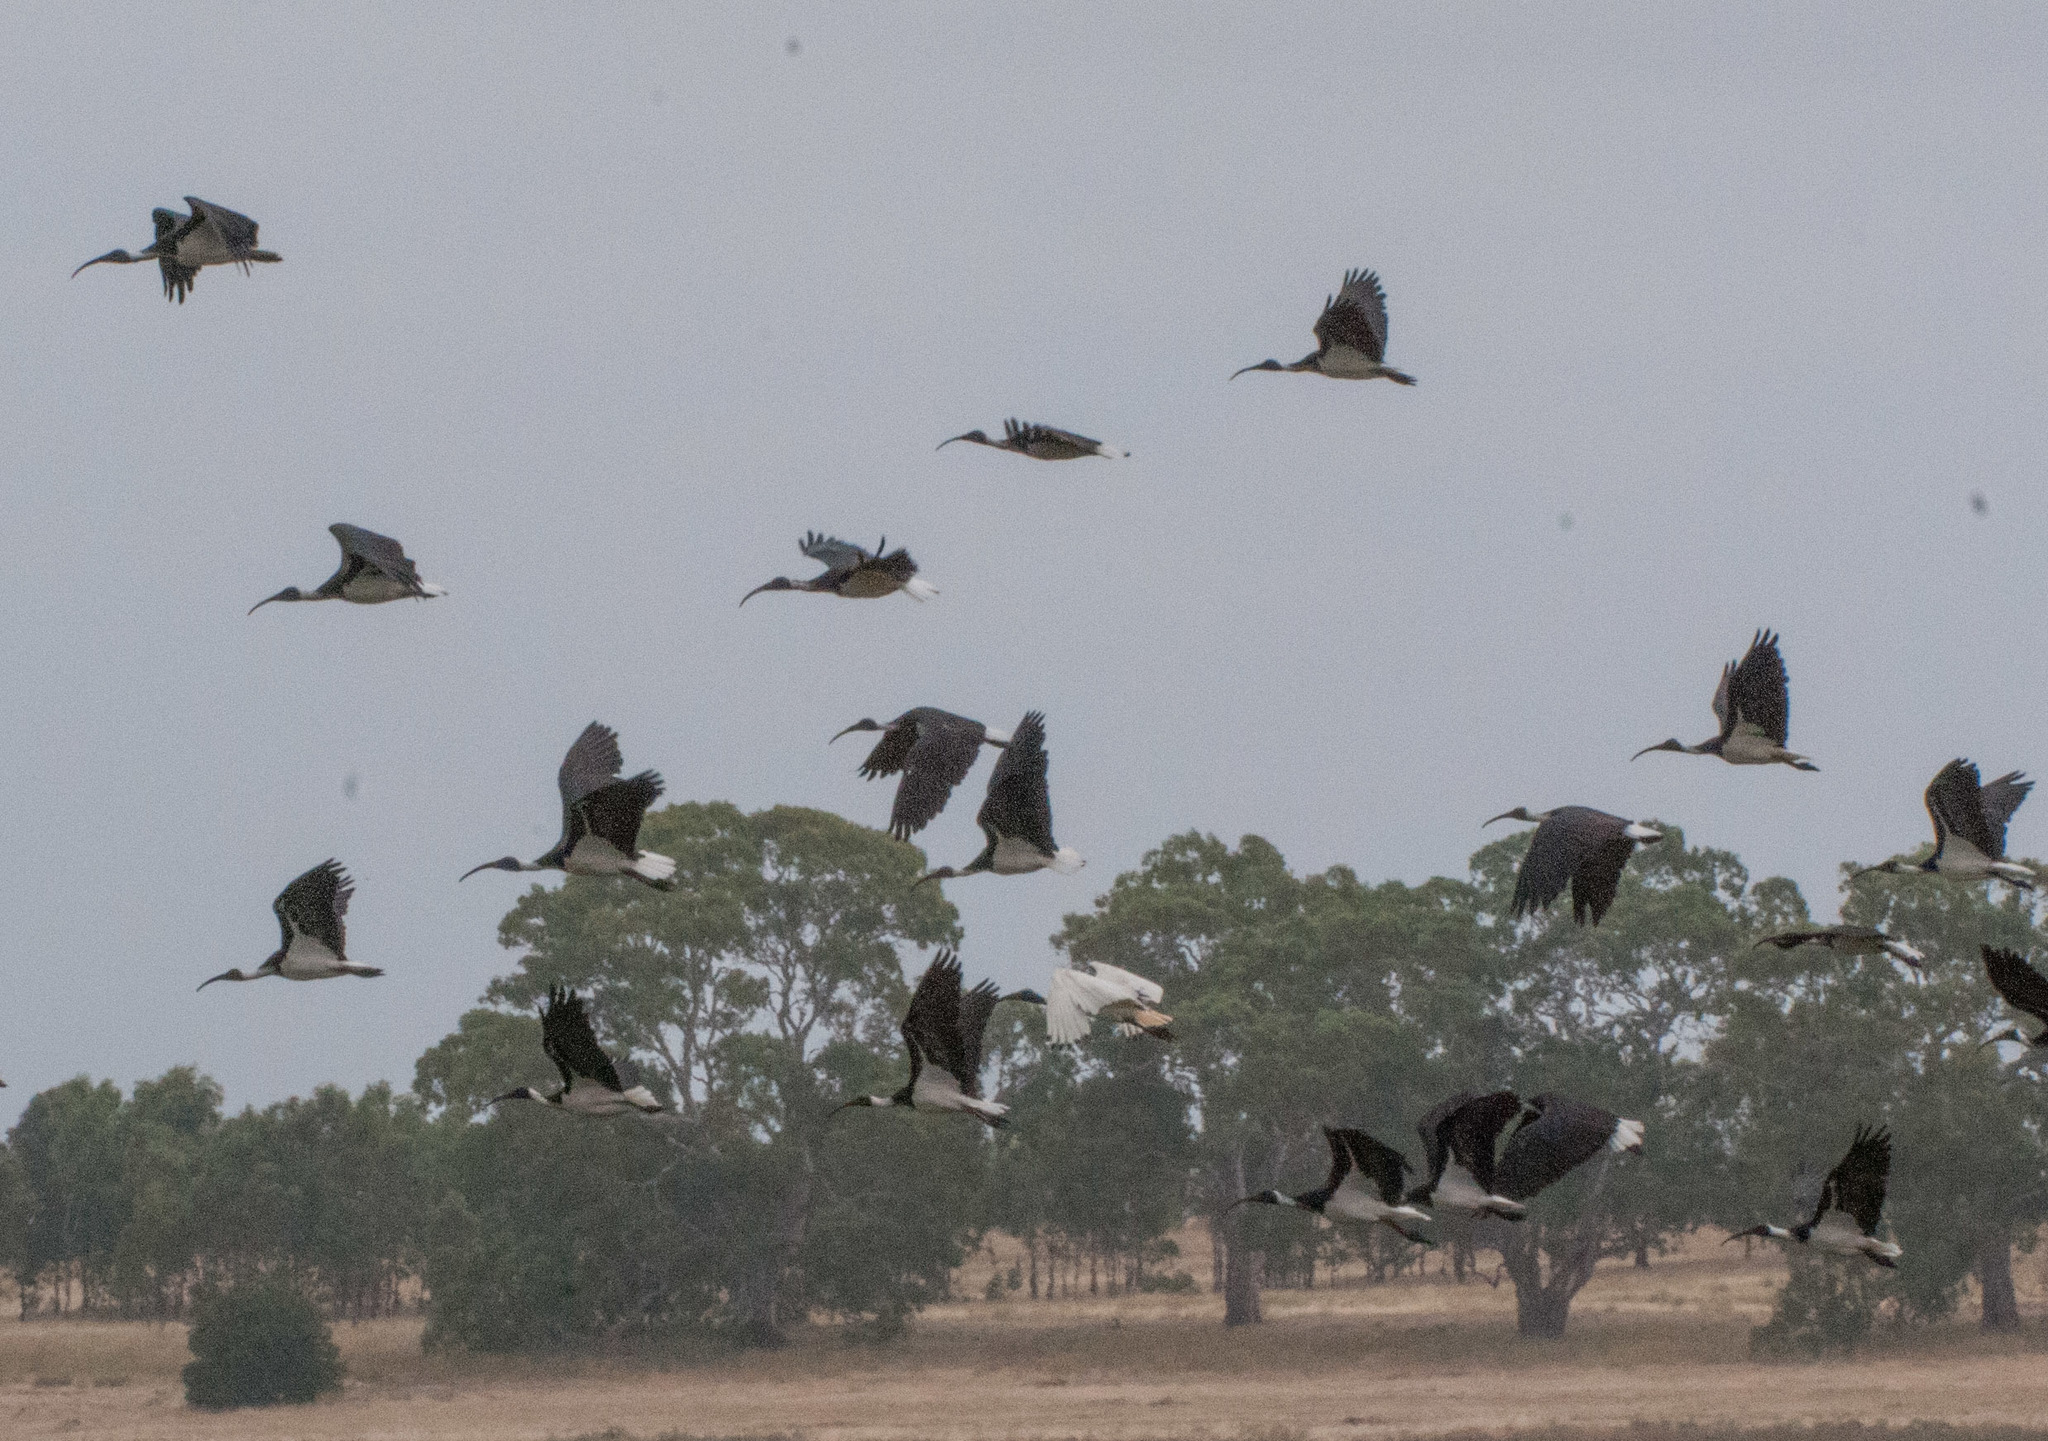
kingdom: Animalia
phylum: Chordata
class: Aves
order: Pelecaniformes
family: Threskiornithidae
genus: Threskiornis
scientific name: Threskiornis spinicollis
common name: Straw-necked ibis
